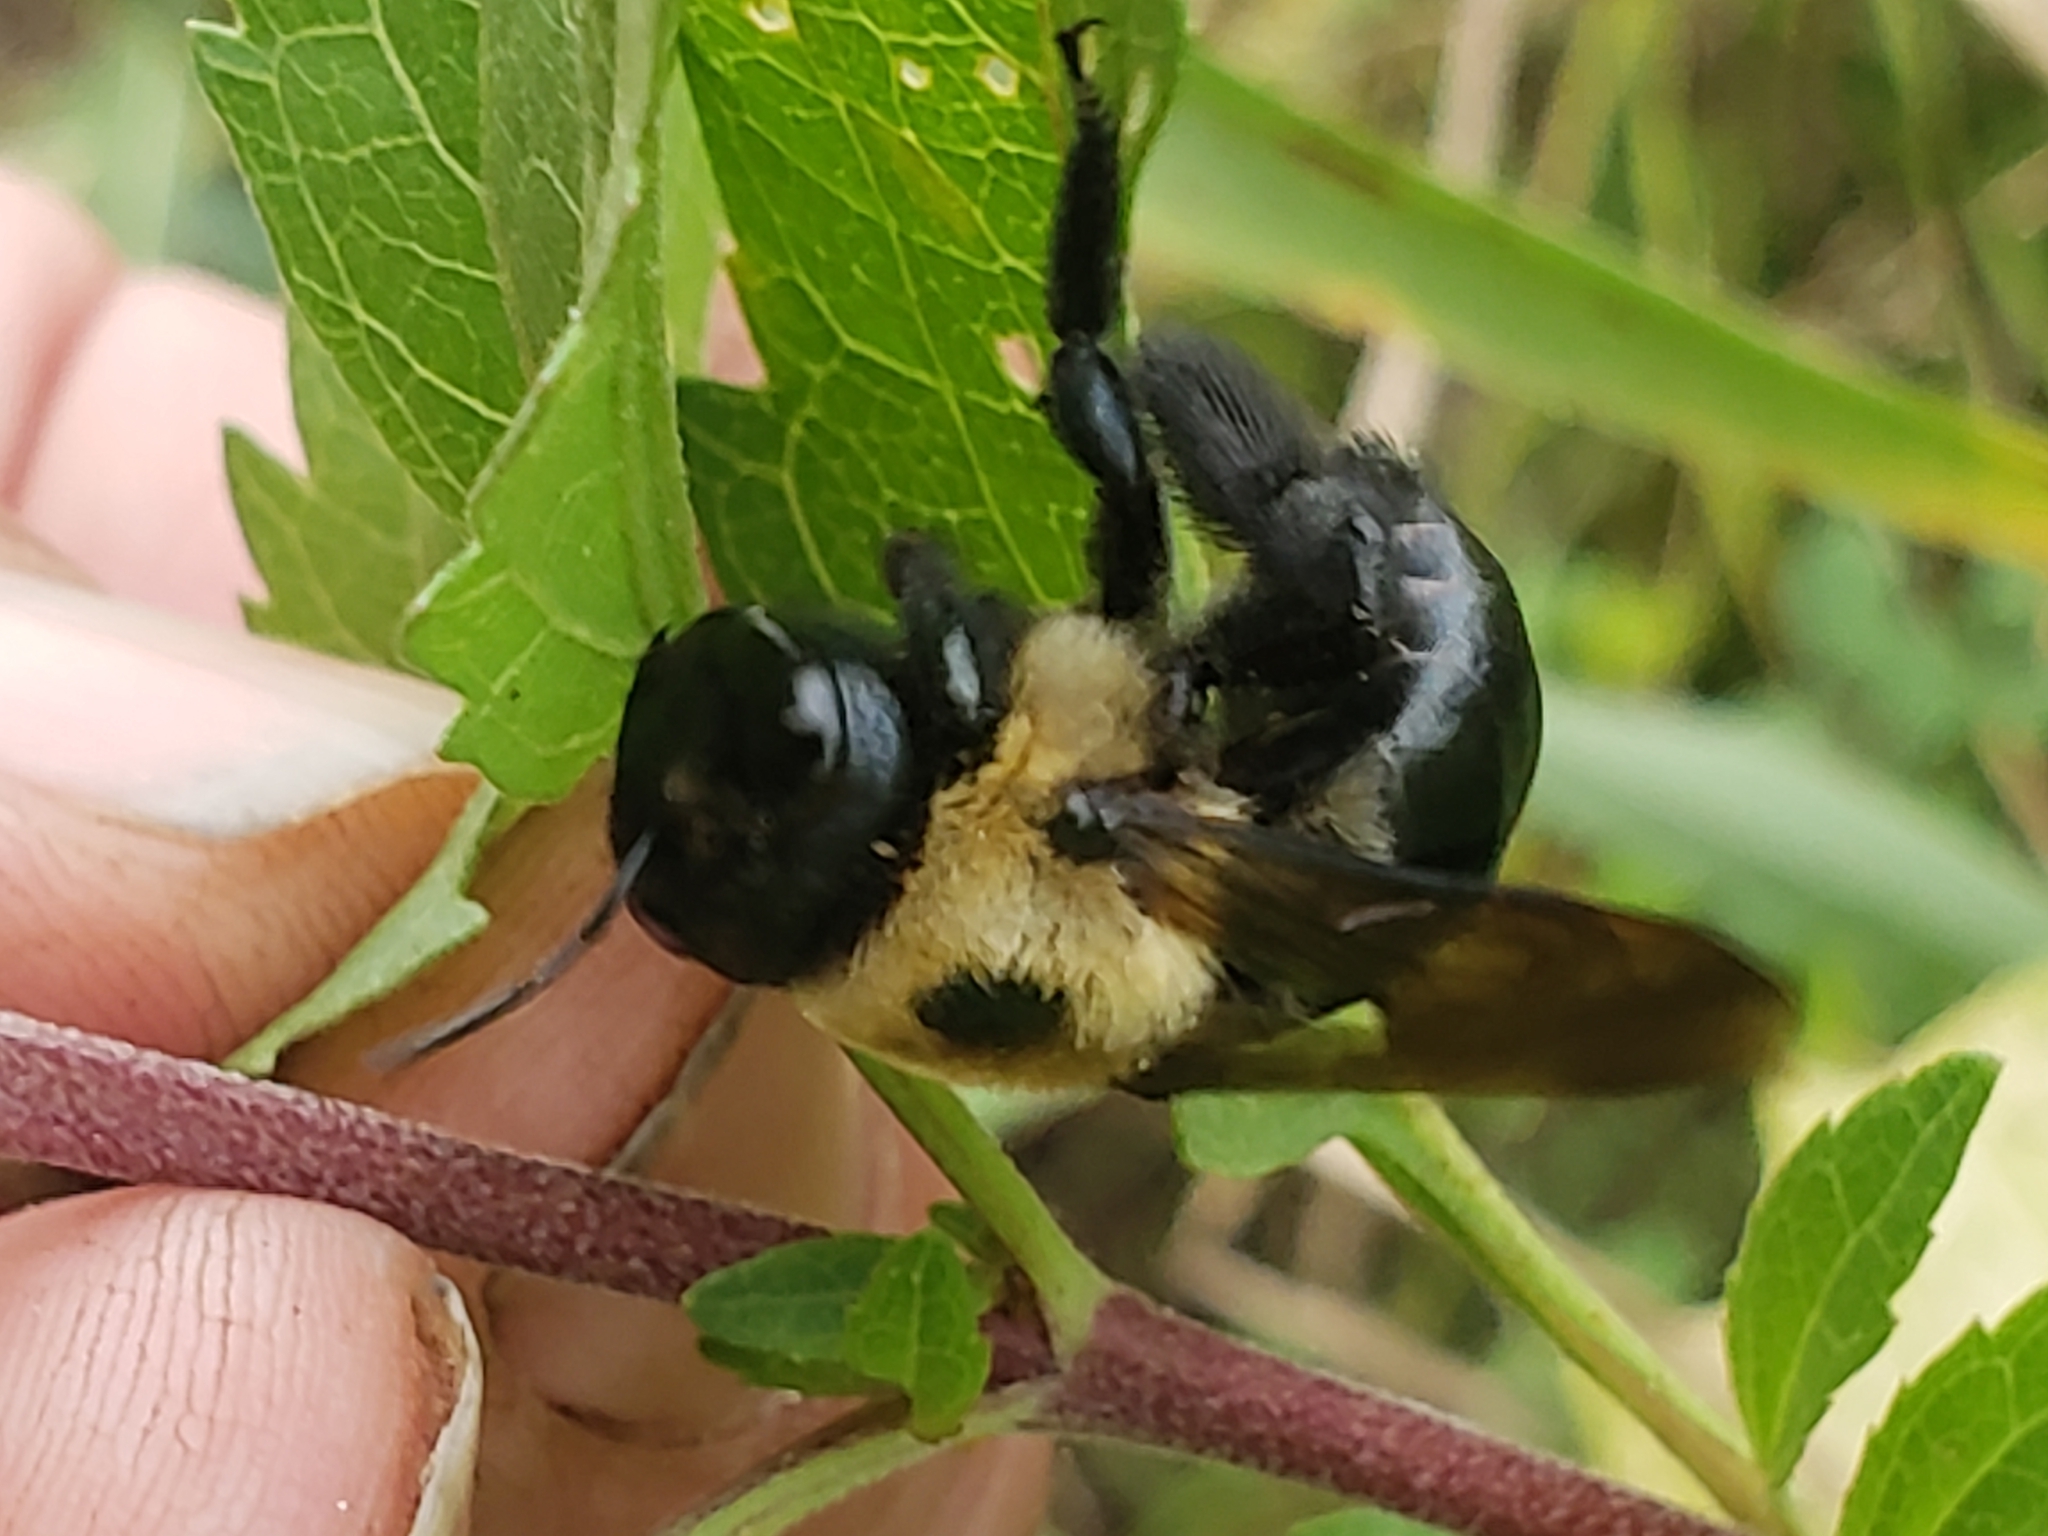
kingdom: Animalia
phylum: Arthropoda
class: Insecta
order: Hymenoptera
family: Apidae
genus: Xylocopa
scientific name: Xylocopa virginica
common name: Carpenter bee
